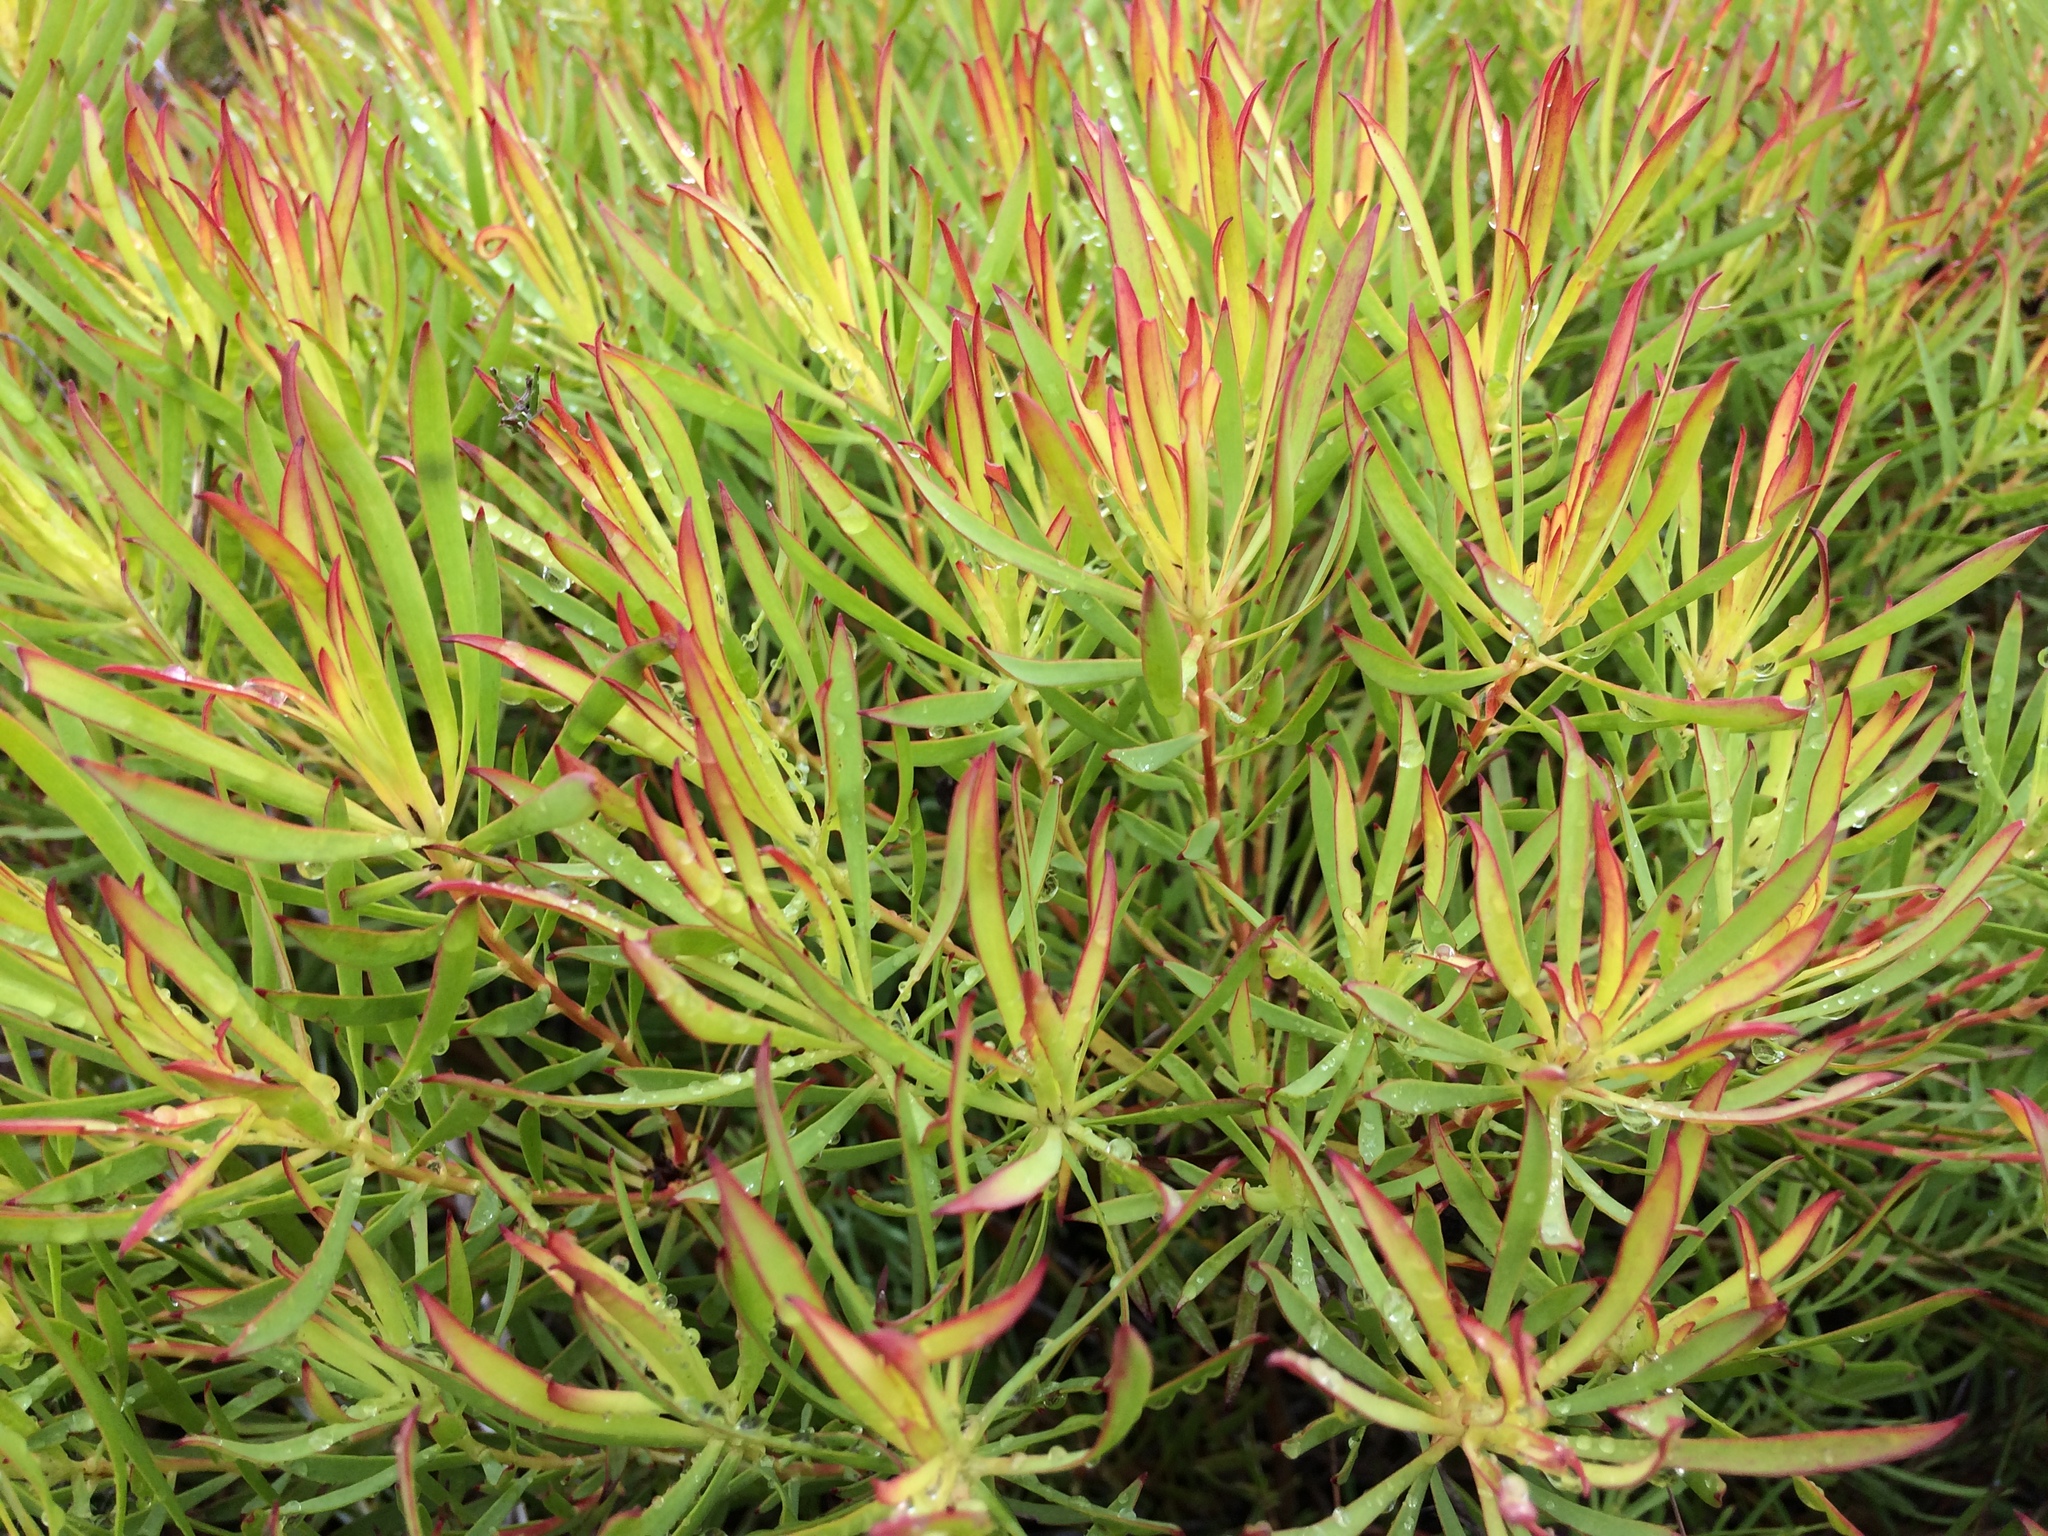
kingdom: Plantae
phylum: Tracheophyta
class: Magnoliopsida
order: Proteales
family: Proteaceae
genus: Leucadendron
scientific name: Leucadendron salignum
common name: Common sunshine conebush
